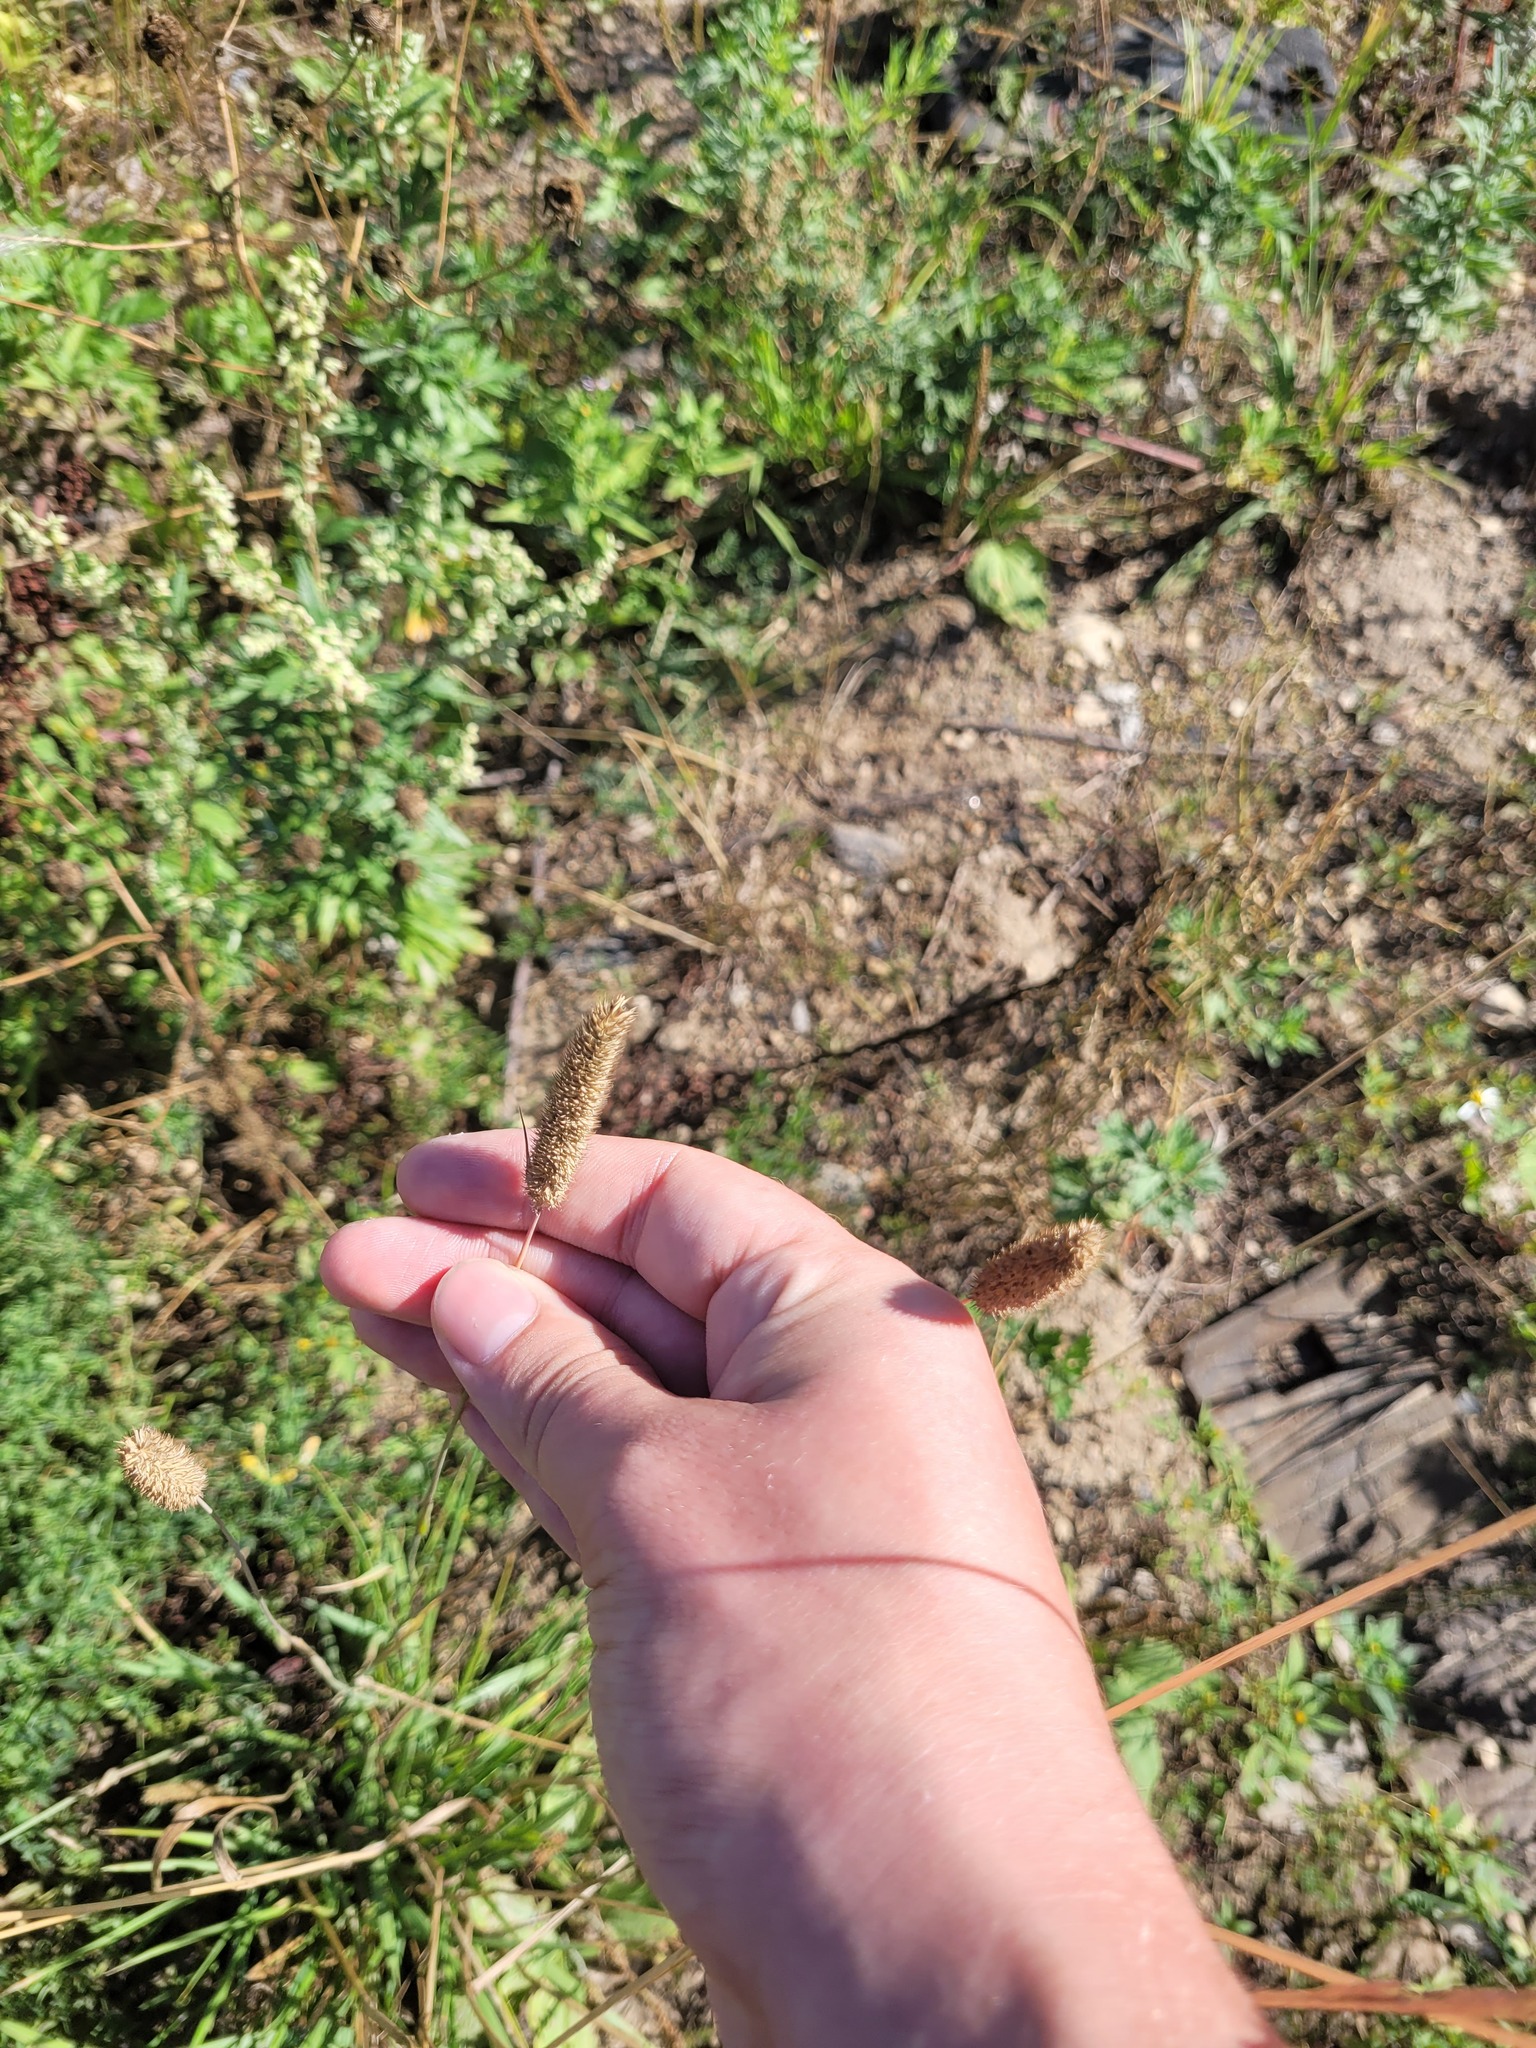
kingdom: Plantae
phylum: Tracheophyta
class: Liliopsida
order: Poales
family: Poaceae
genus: Phleum
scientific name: Phleum pratense
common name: Timothy grass
